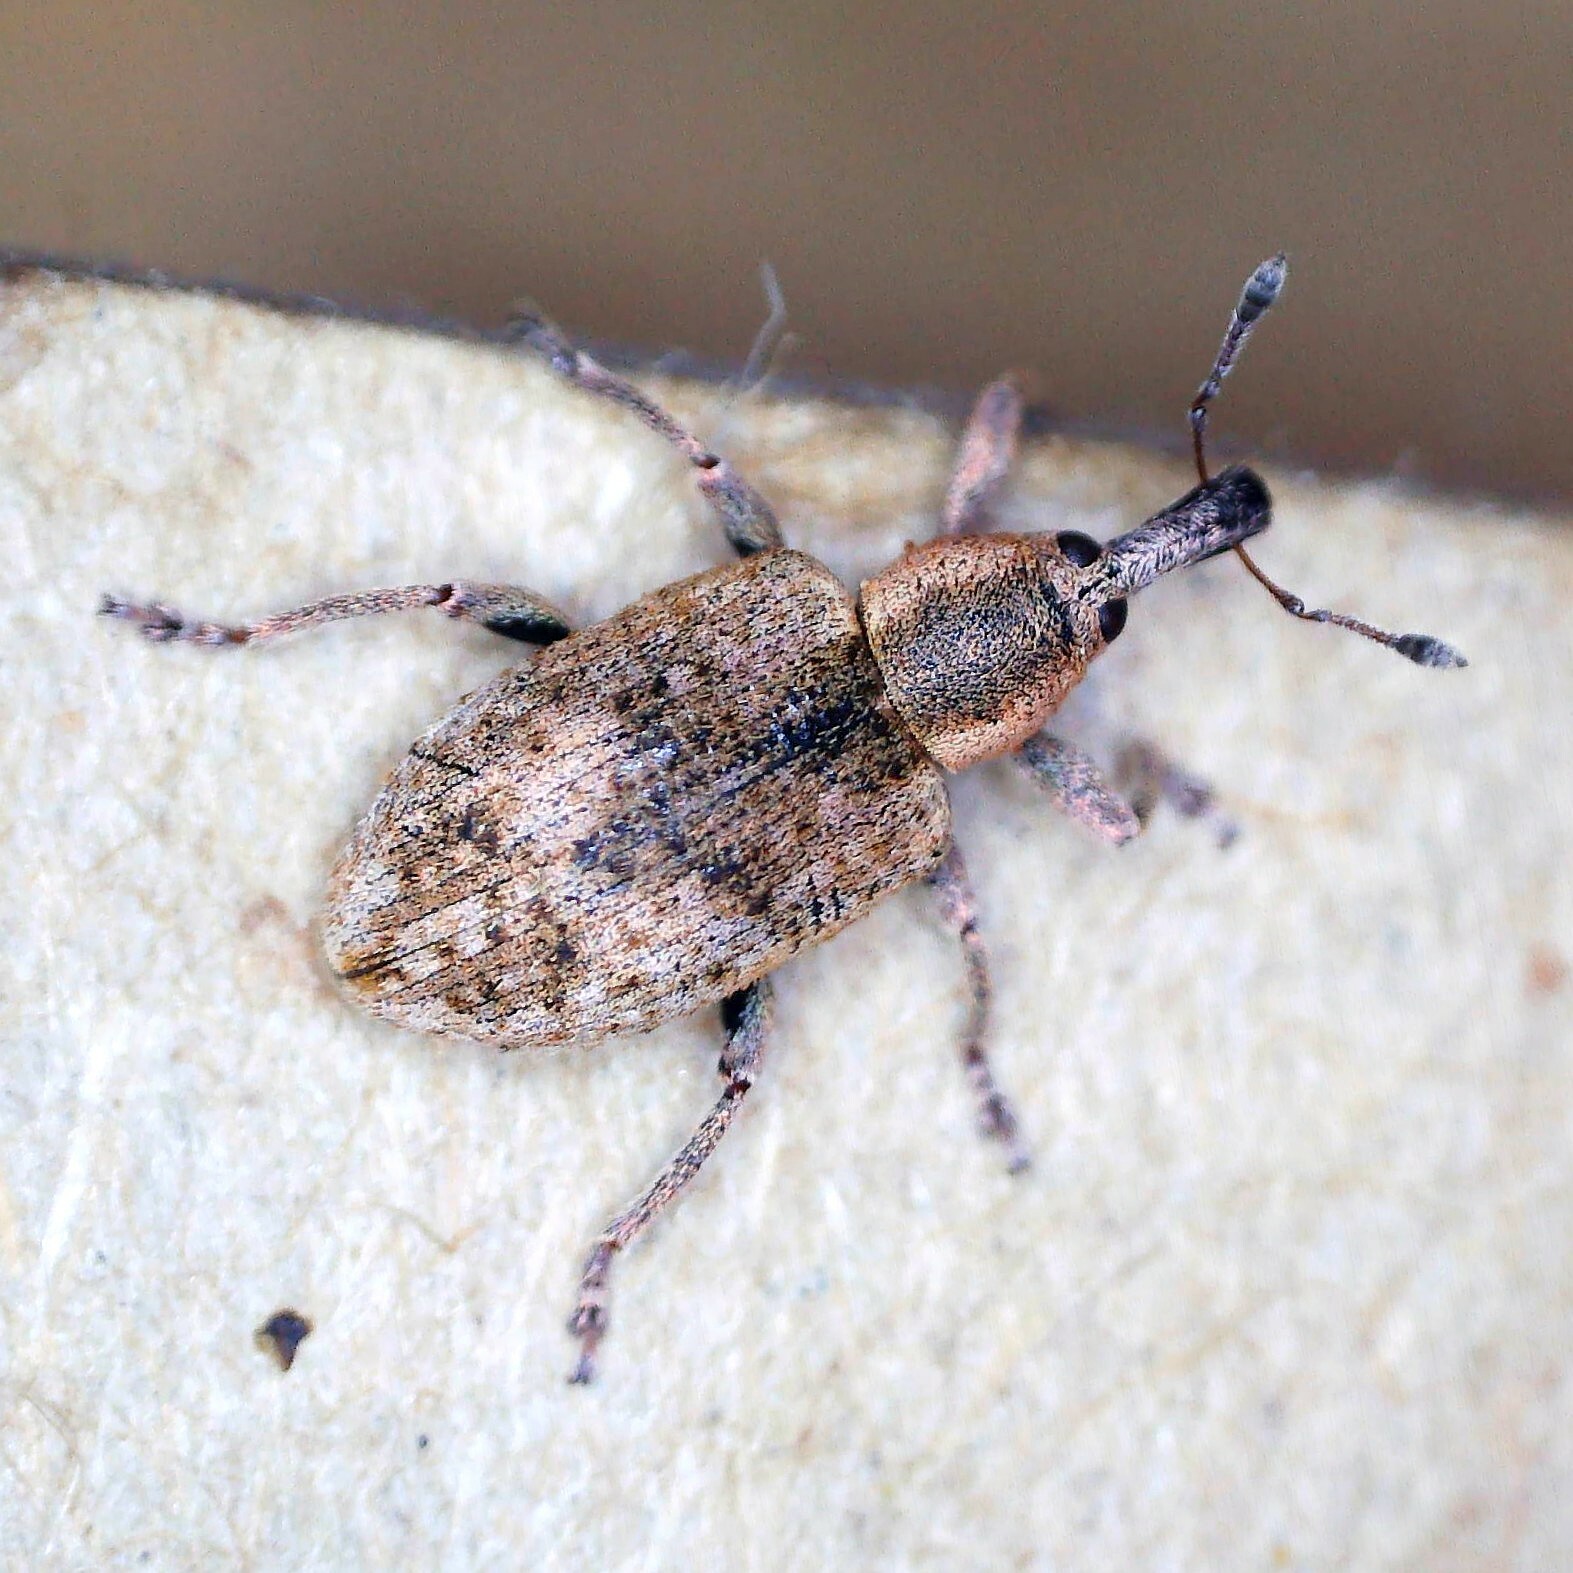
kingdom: Animalia
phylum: Arthropoda
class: Insecta
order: Coleoptera
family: Curculionidae
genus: Hypera
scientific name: Hypera rumicis
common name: Weevil
